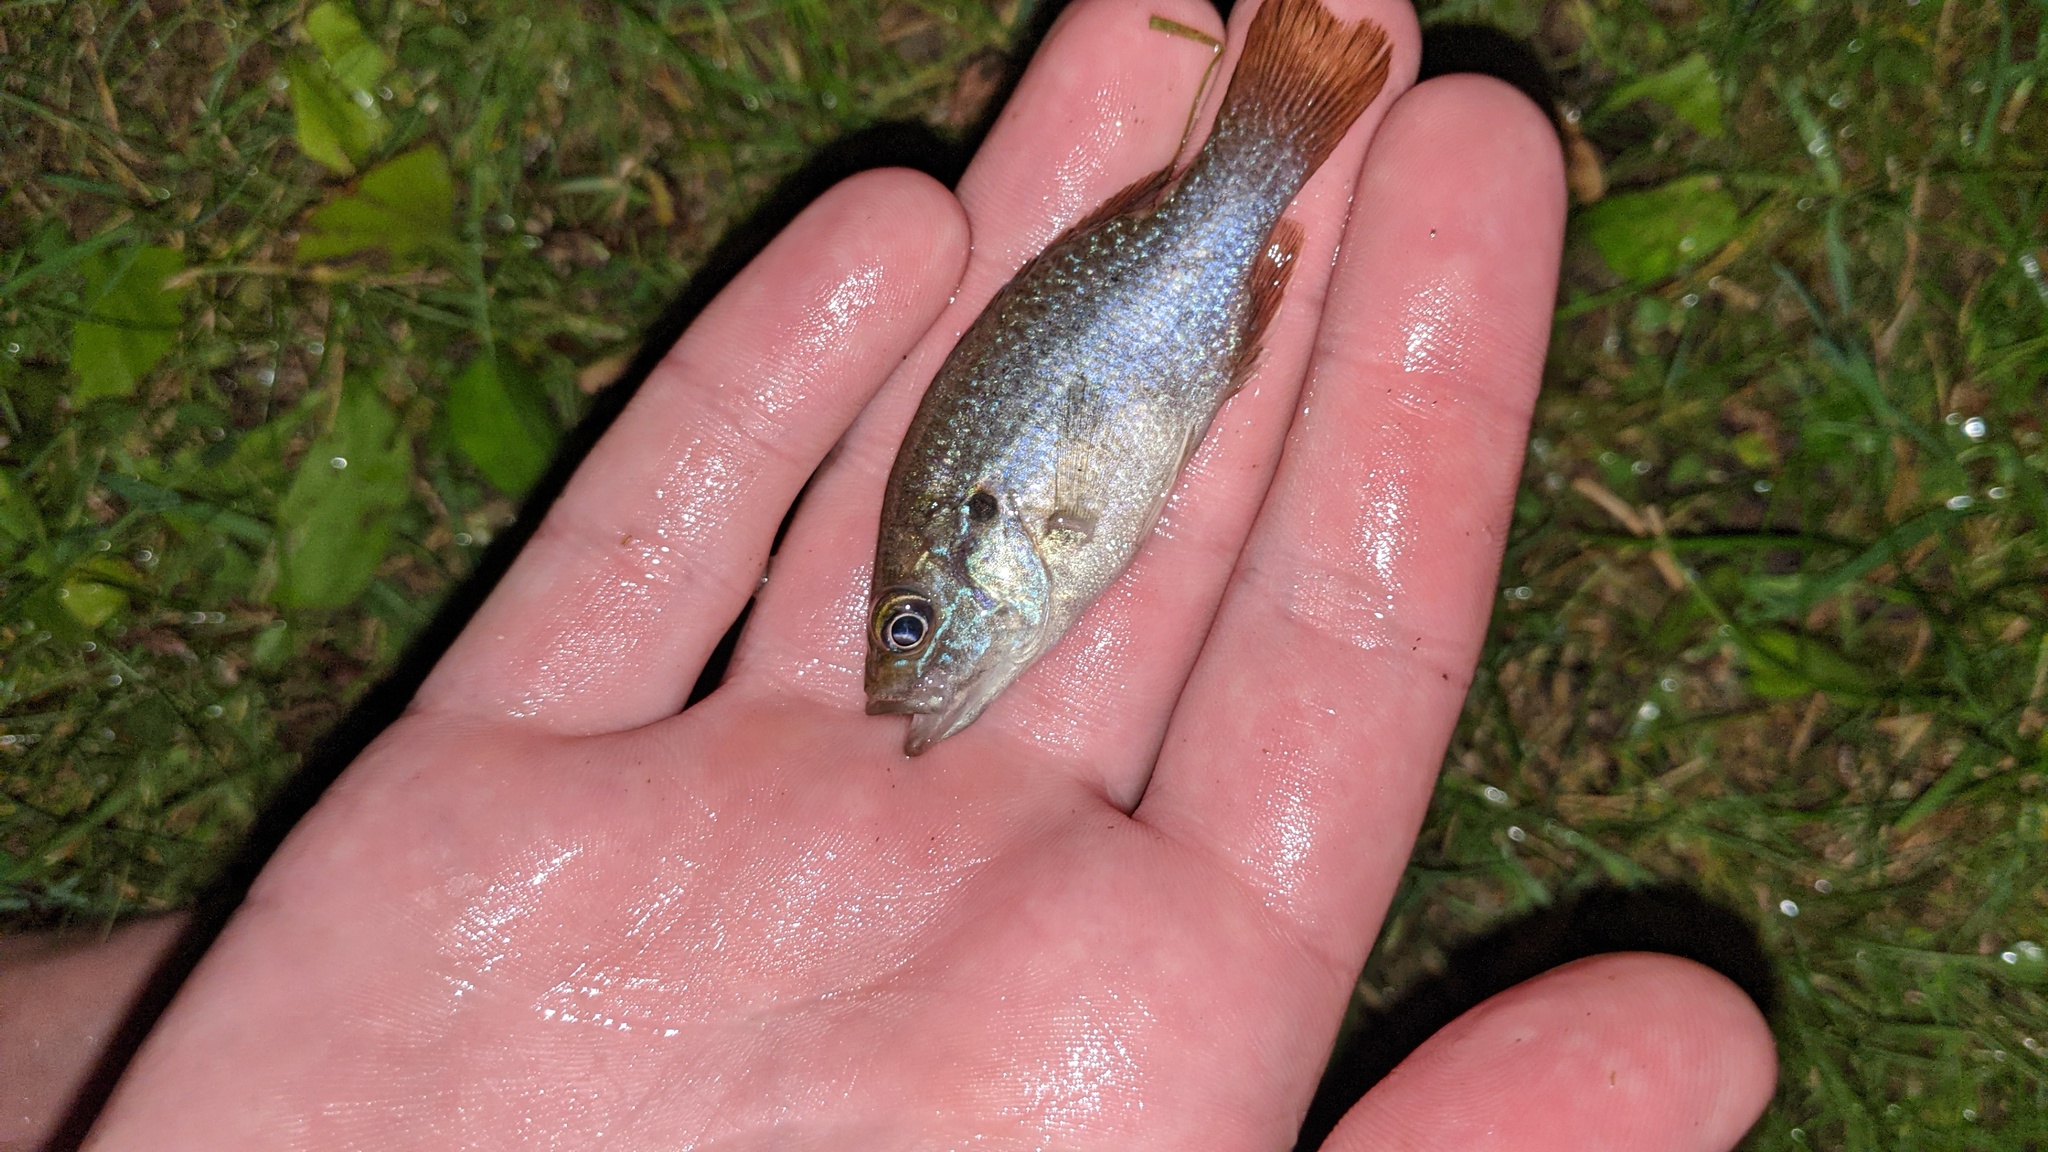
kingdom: Animalia
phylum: Chordata
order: Perciformes
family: Centrarchidae
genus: Lepomis
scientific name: Lepomis cyanellus
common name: Green sunfish
